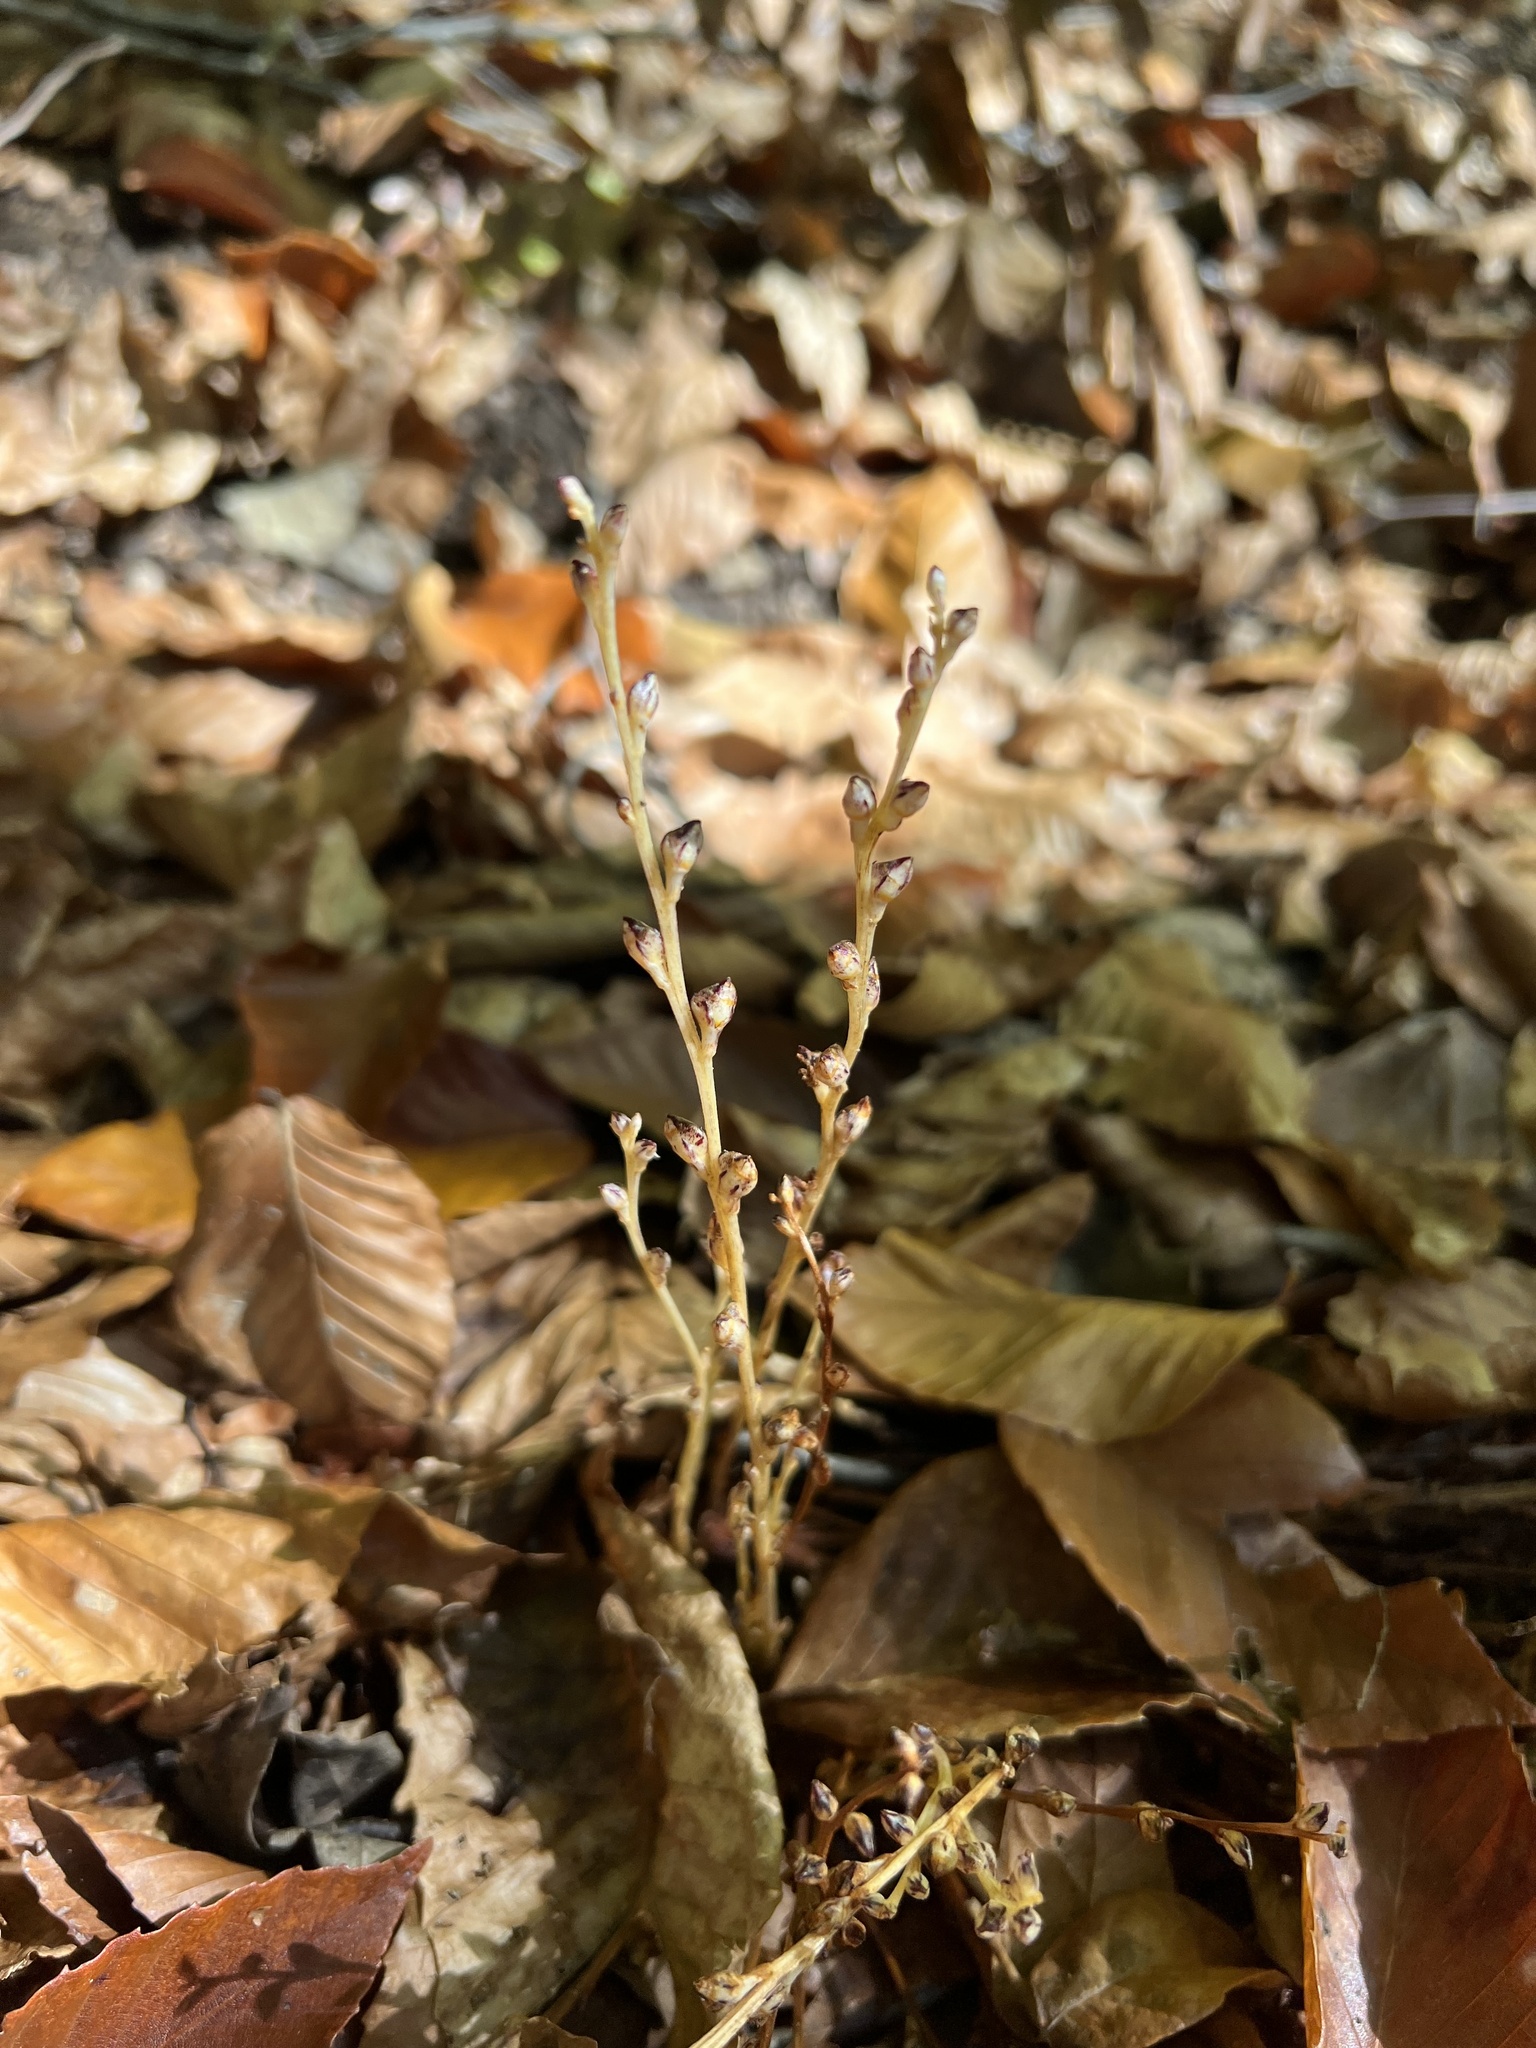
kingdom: Plantae
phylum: Tracheophyta
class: Magnoliopsida
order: Lamiales
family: Orobanchaceae
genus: Epifagus
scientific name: Epifagus virginiana
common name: Beechdrops
